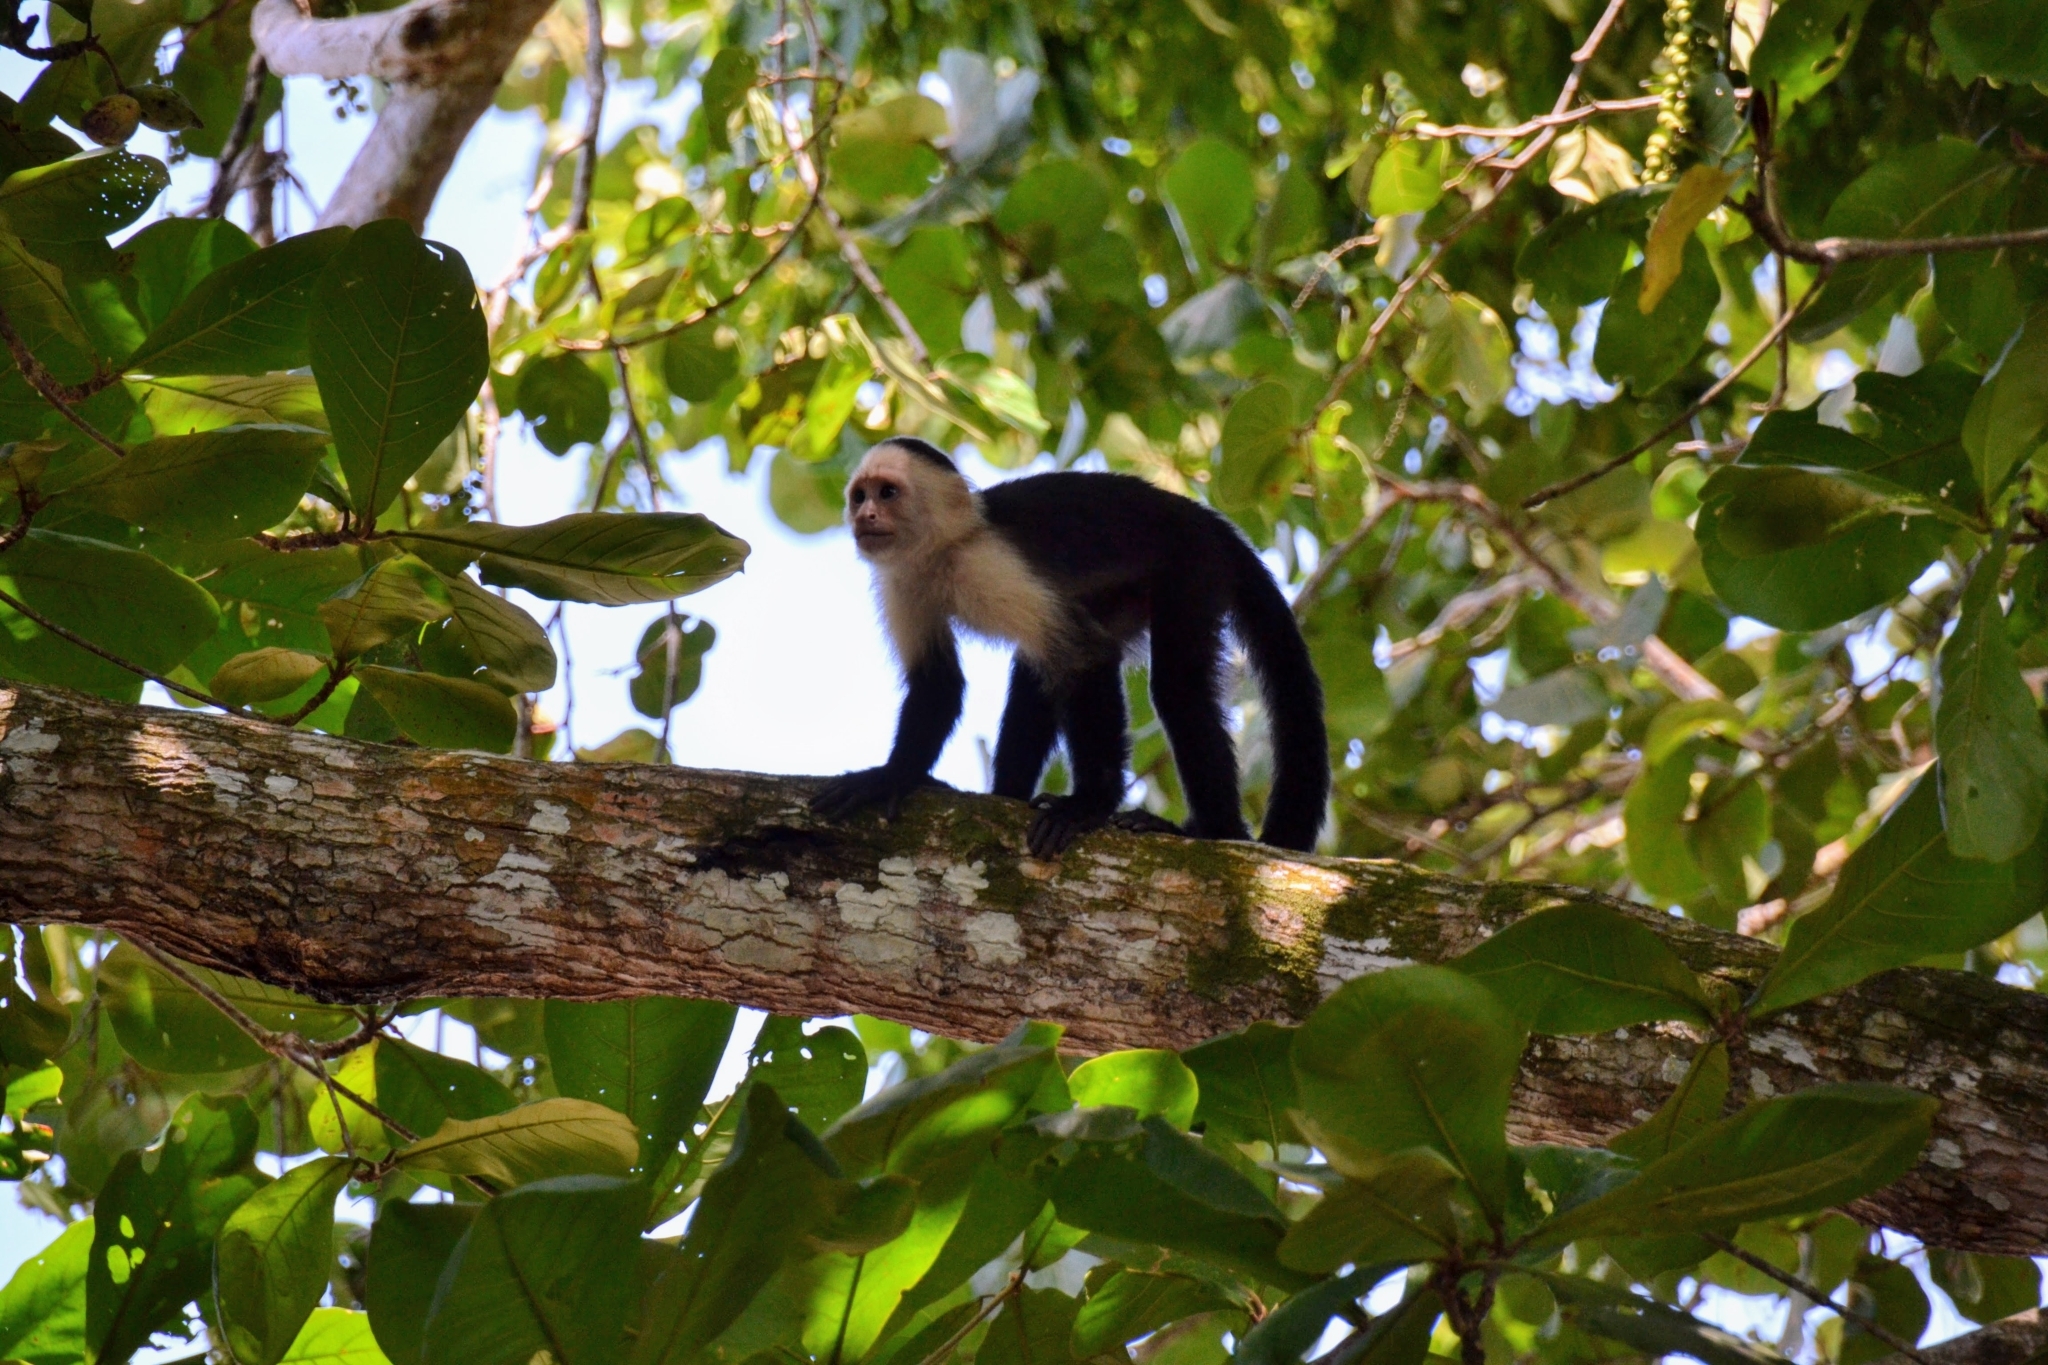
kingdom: Animalia
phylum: Chordata
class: Mammalia
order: Primates
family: Cebidae
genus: Cebus
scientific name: Cebus imitator
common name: Panamanian white-faced capuchin
